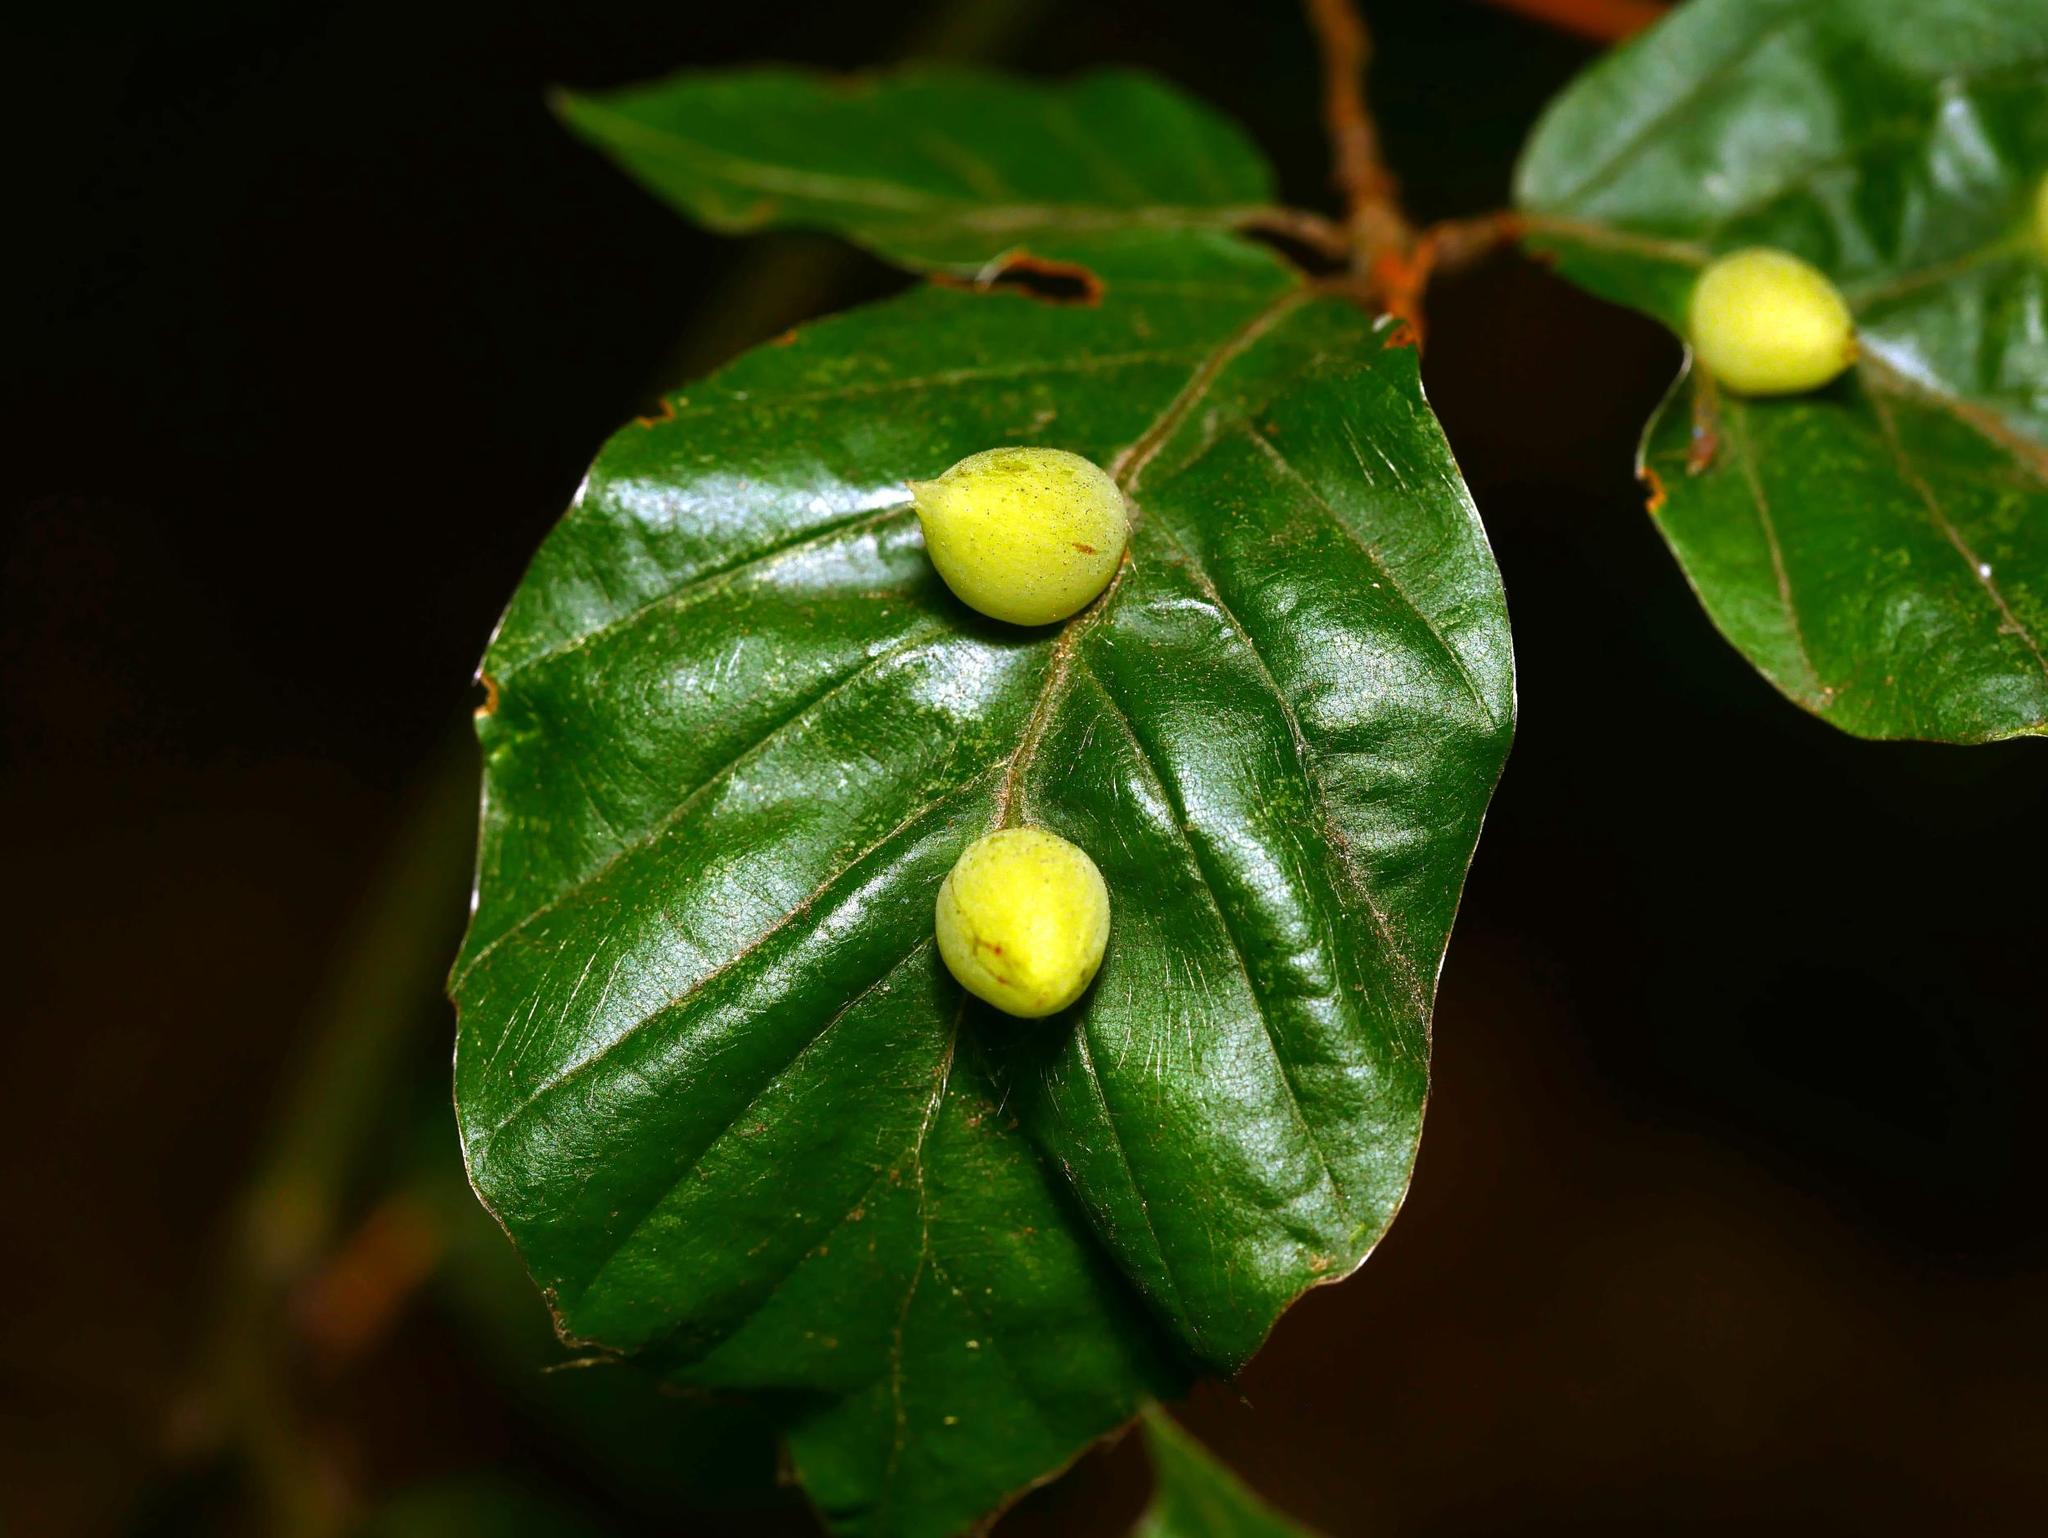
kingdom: Animalia
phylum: Arthropoda
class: Insecta
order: Diptera
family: Cecidomyiidae
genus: Mikiola
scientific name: Mikiola fagi
